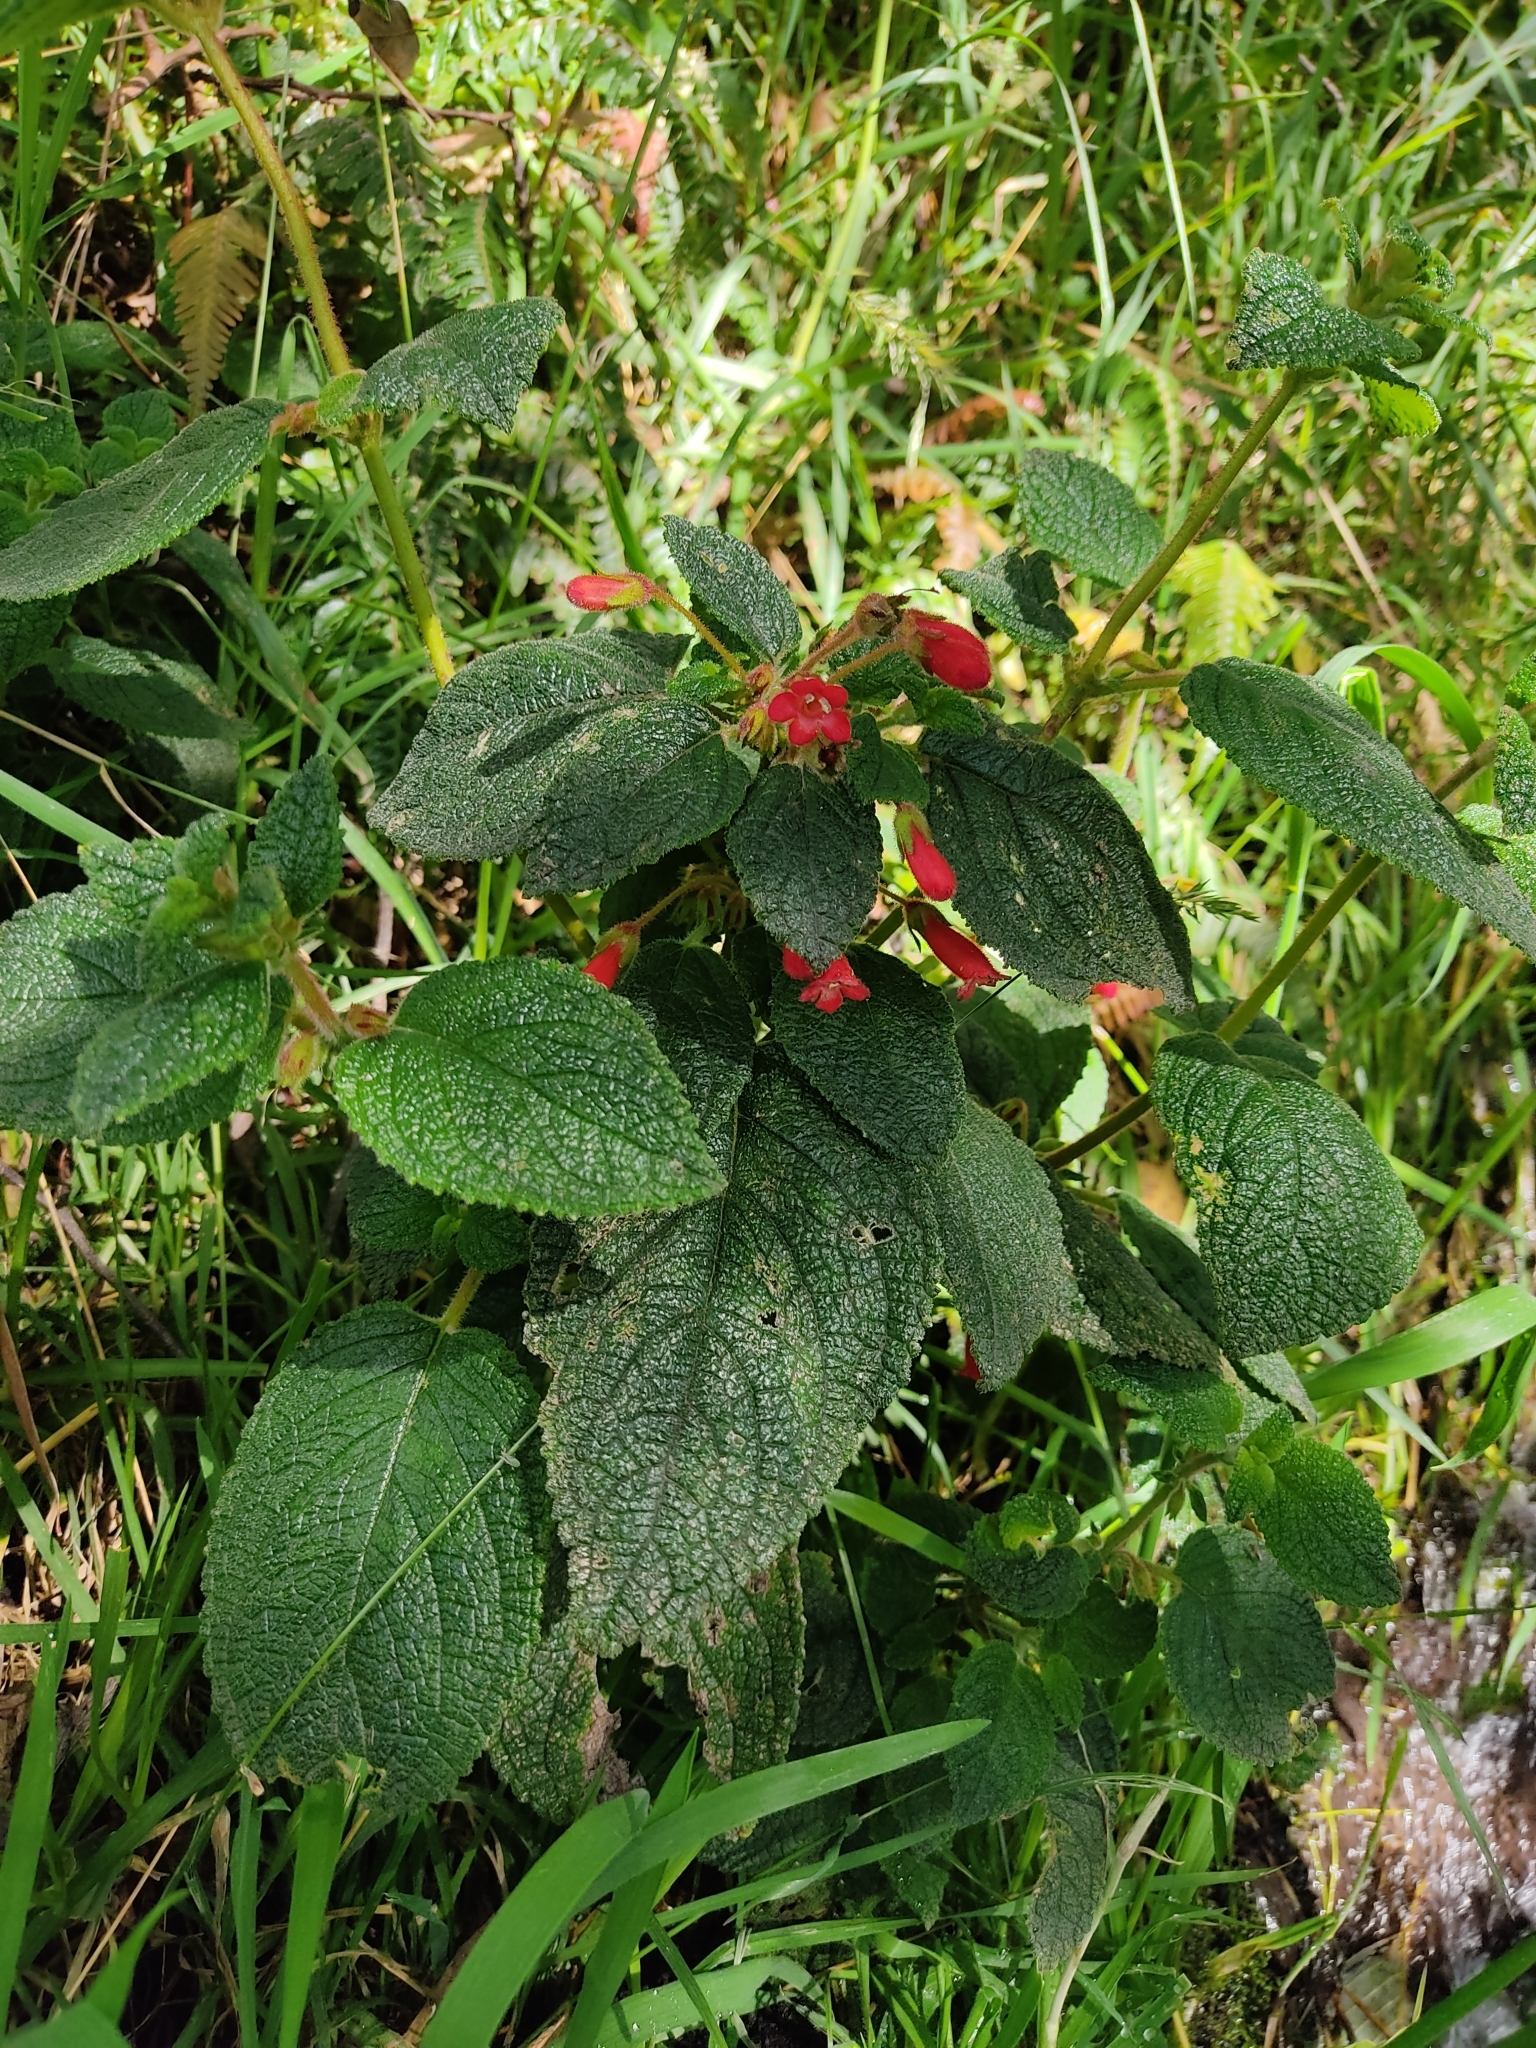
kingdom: Plantae
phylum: Tracheophyta
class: Magnoliopsida
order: Lamiales
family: Gesneriaceae
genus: Heppiella
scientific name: Heppiella ulmifolia
